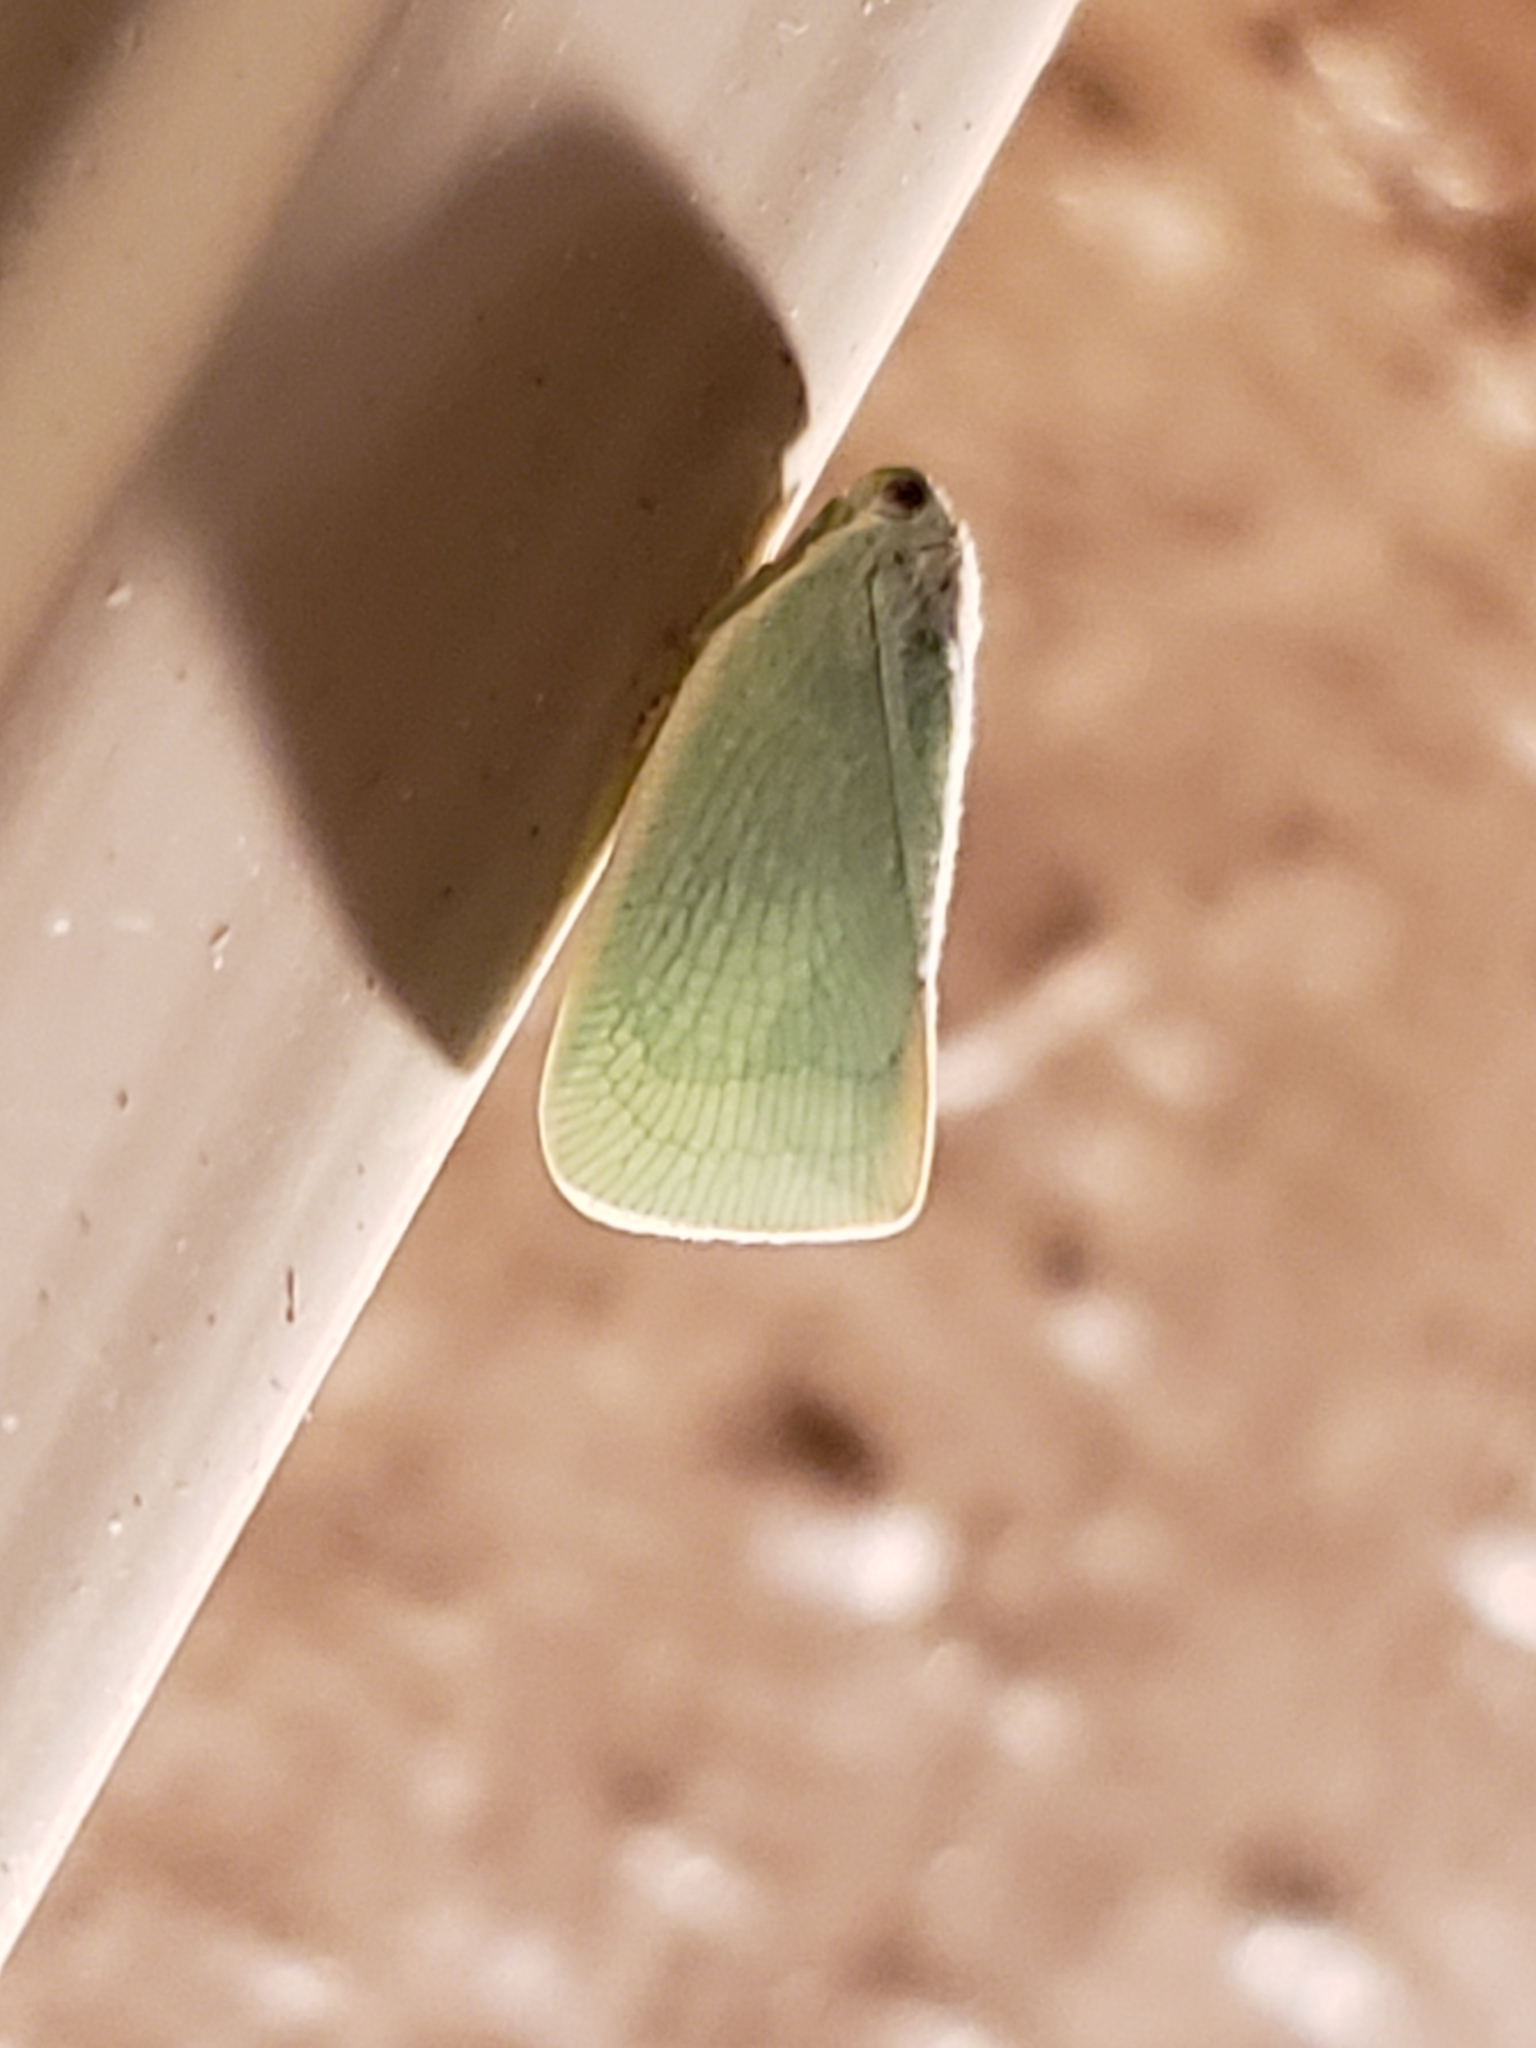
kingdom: Animalia
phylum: Arthropoda
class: Insecta
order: Hemiptera
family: Flatidae
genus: Flatormenis
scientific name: Flatormenis proxima
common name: Northern flatid planthopper
